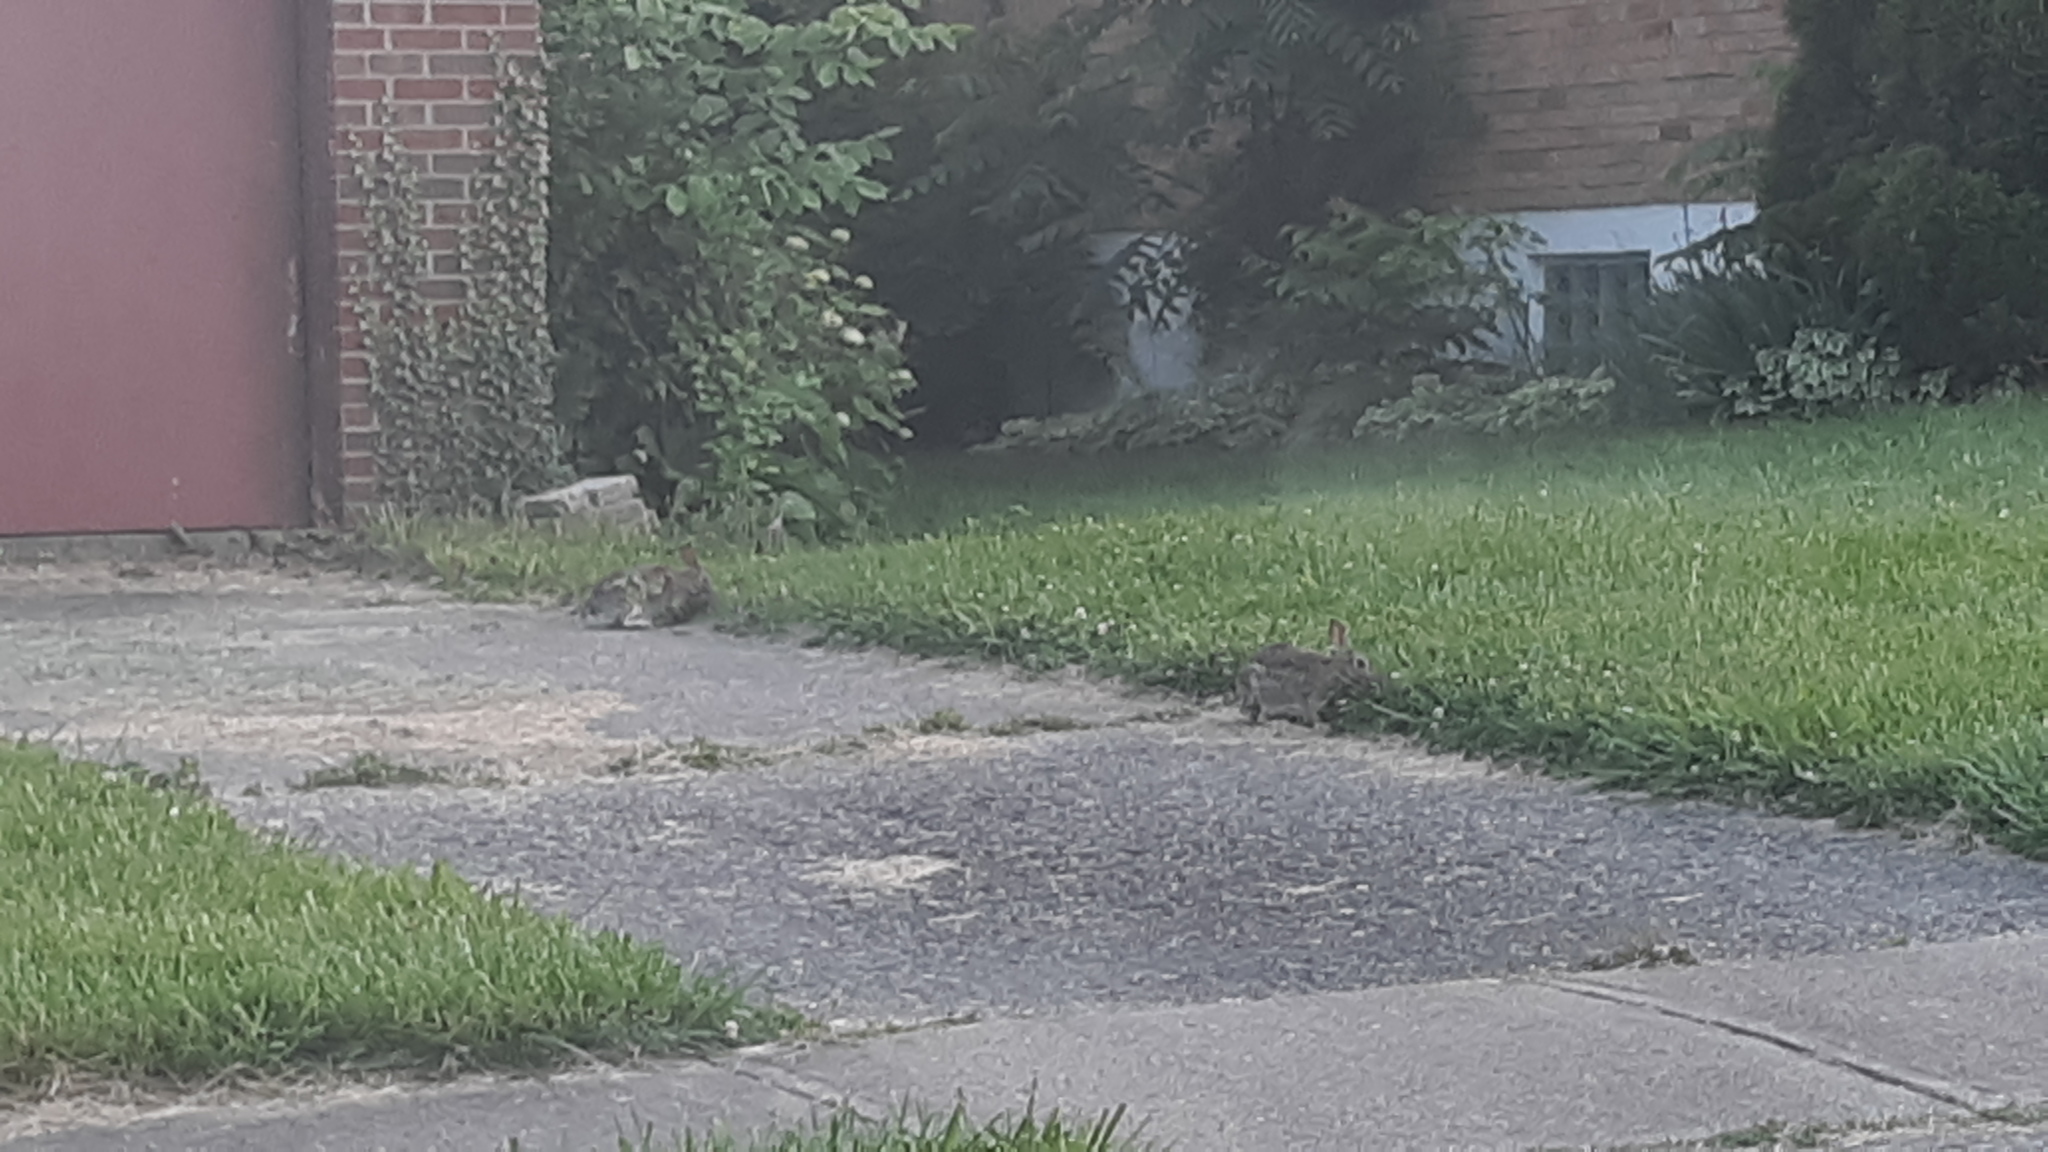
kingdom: Animalia
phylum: Chordata
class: Mammalia
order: Lagomorpha
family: Leporidae
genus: Sylvilagus
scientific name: Sylvilagus floridanus
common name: Eastern cottontail
